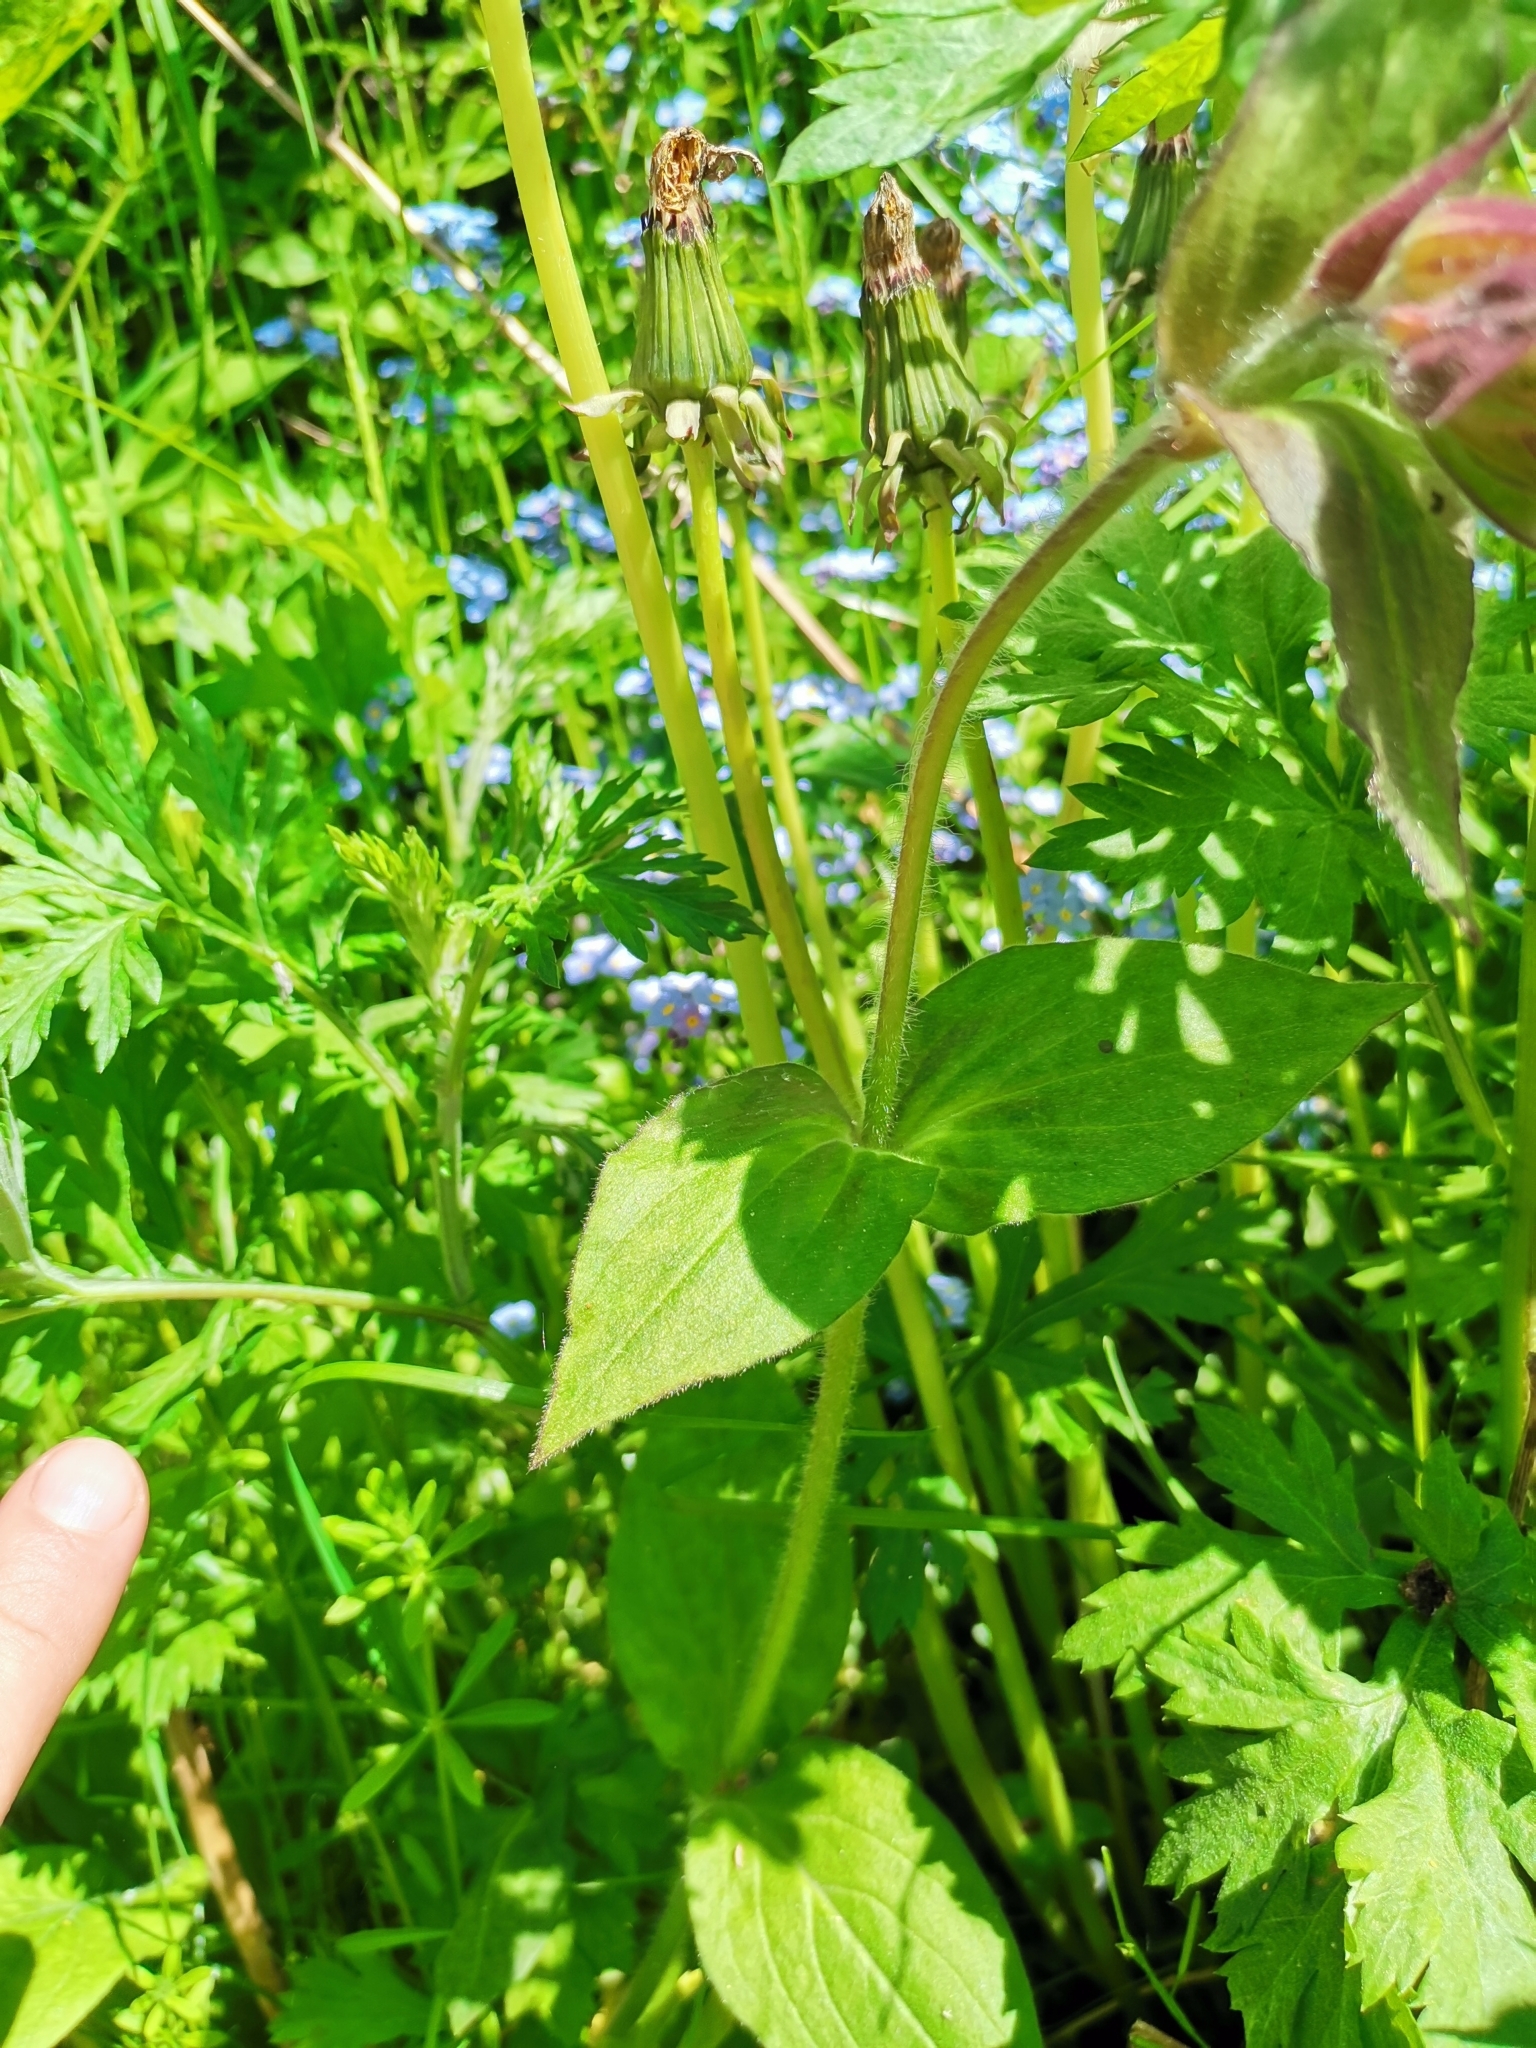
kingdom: Plantae
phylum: Tracheophyta
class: Magnoliopsida
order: Caryophyllales
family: Caryophyllaceae
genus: Silene
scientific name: Silene dioica
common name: Red campion
